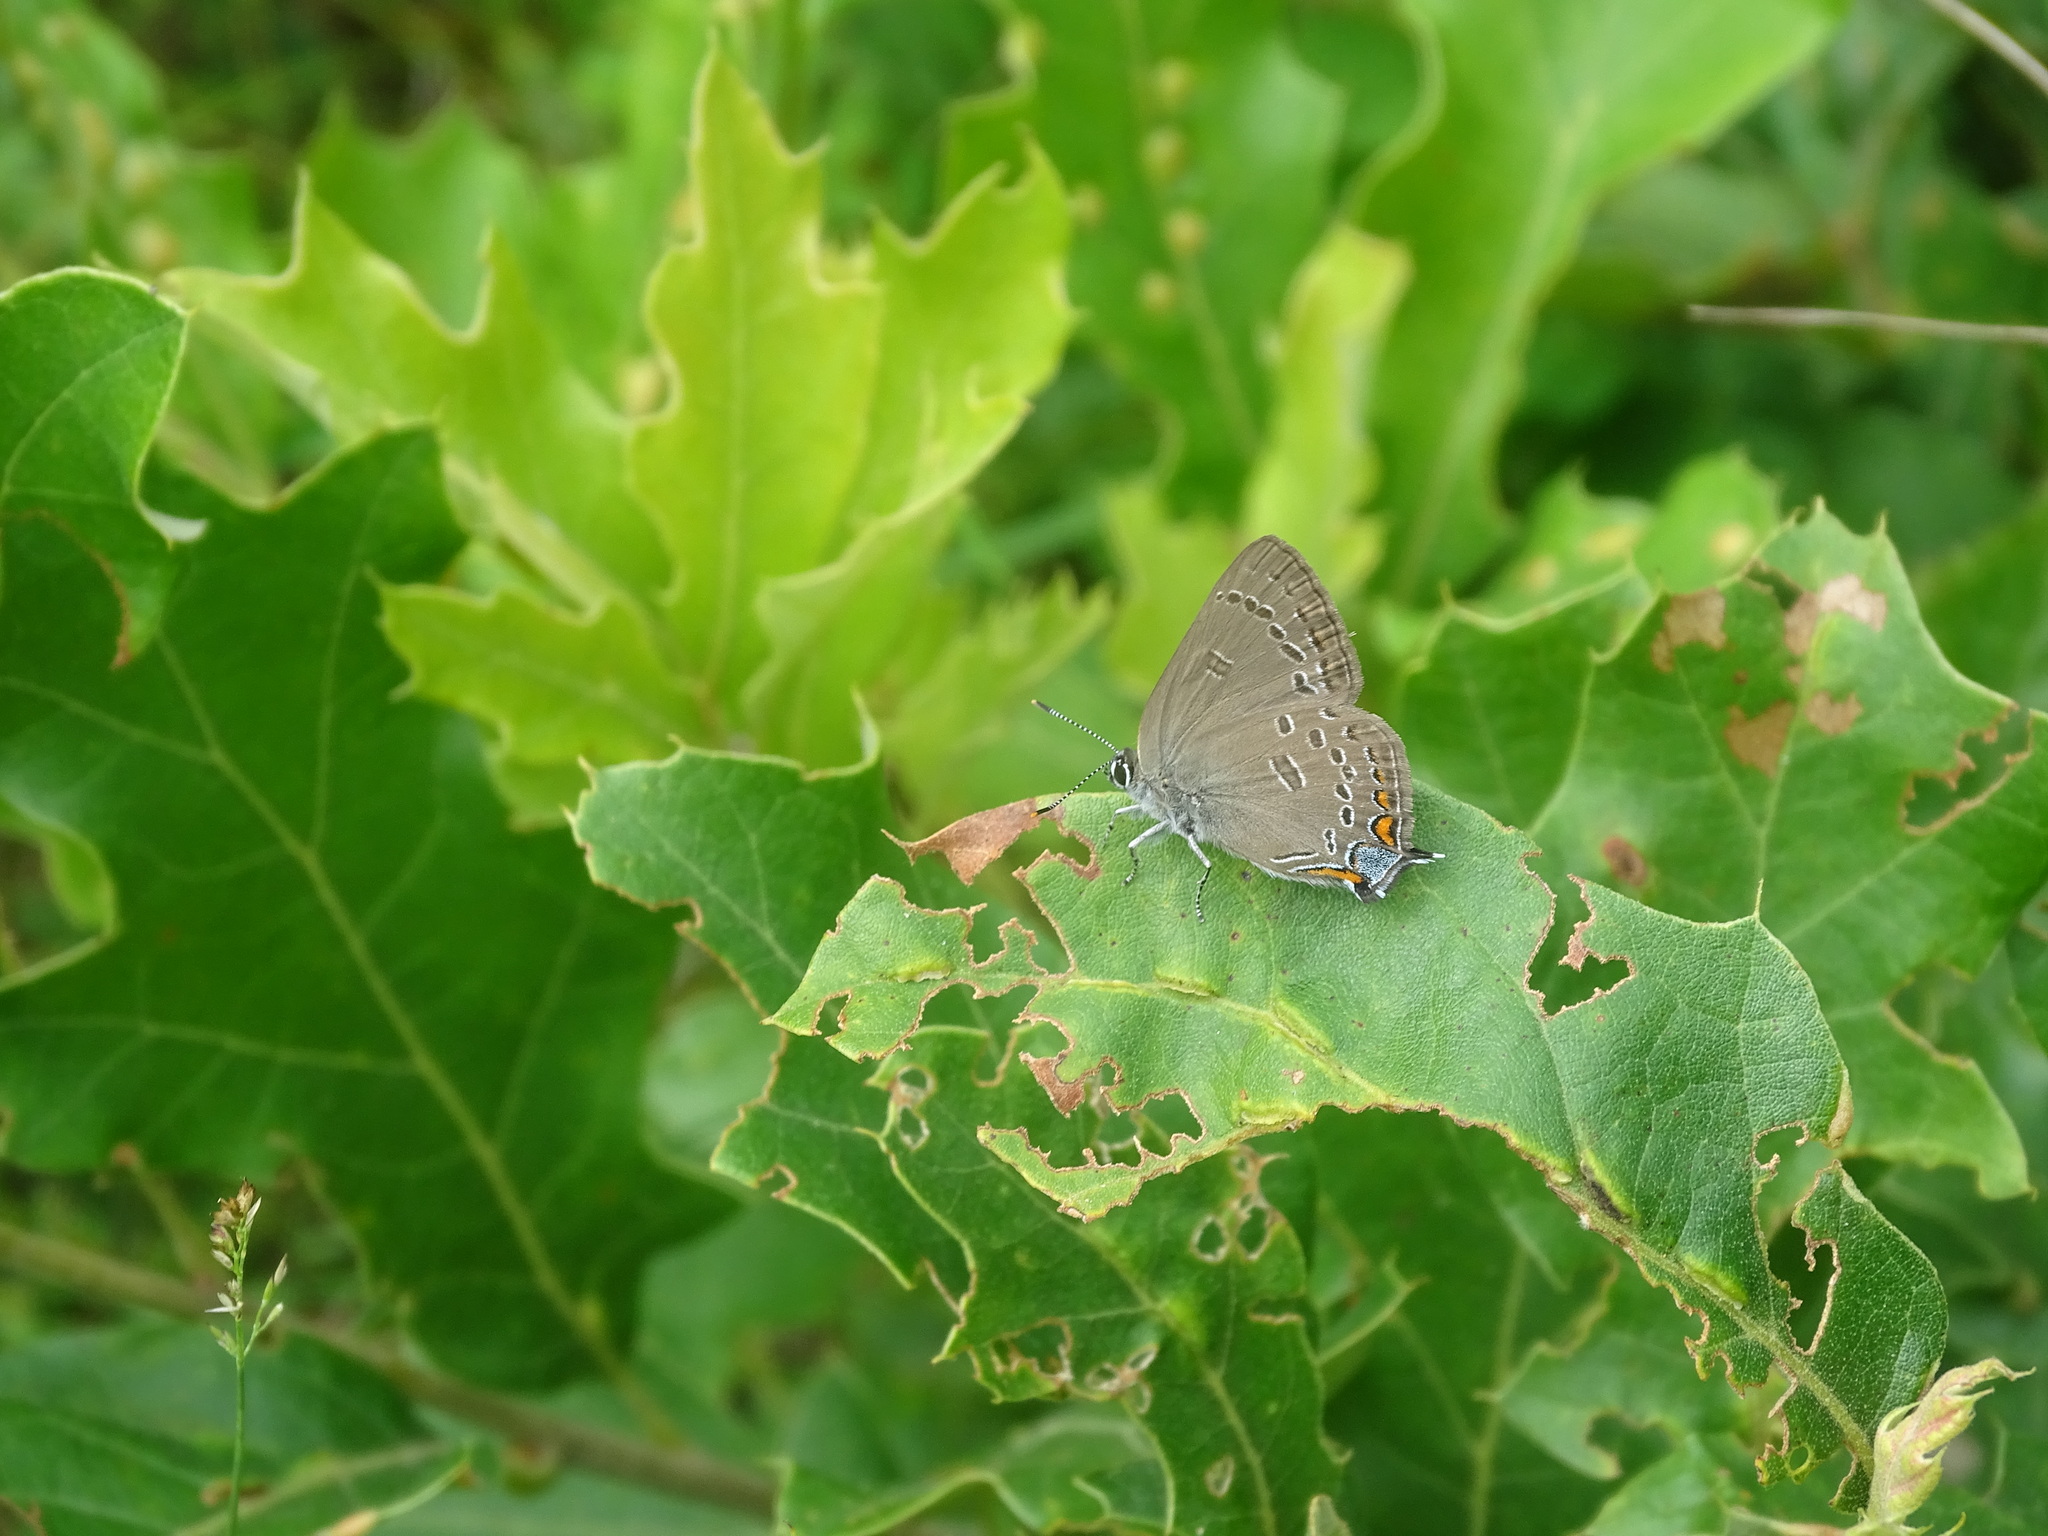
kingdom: Animalia
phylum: Arthropoda
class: Insecta
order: Lepidoptera
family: Lycaenidae
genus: Satyrium
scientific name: Satyrium edwardsii
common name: Edwards' hairstreak
